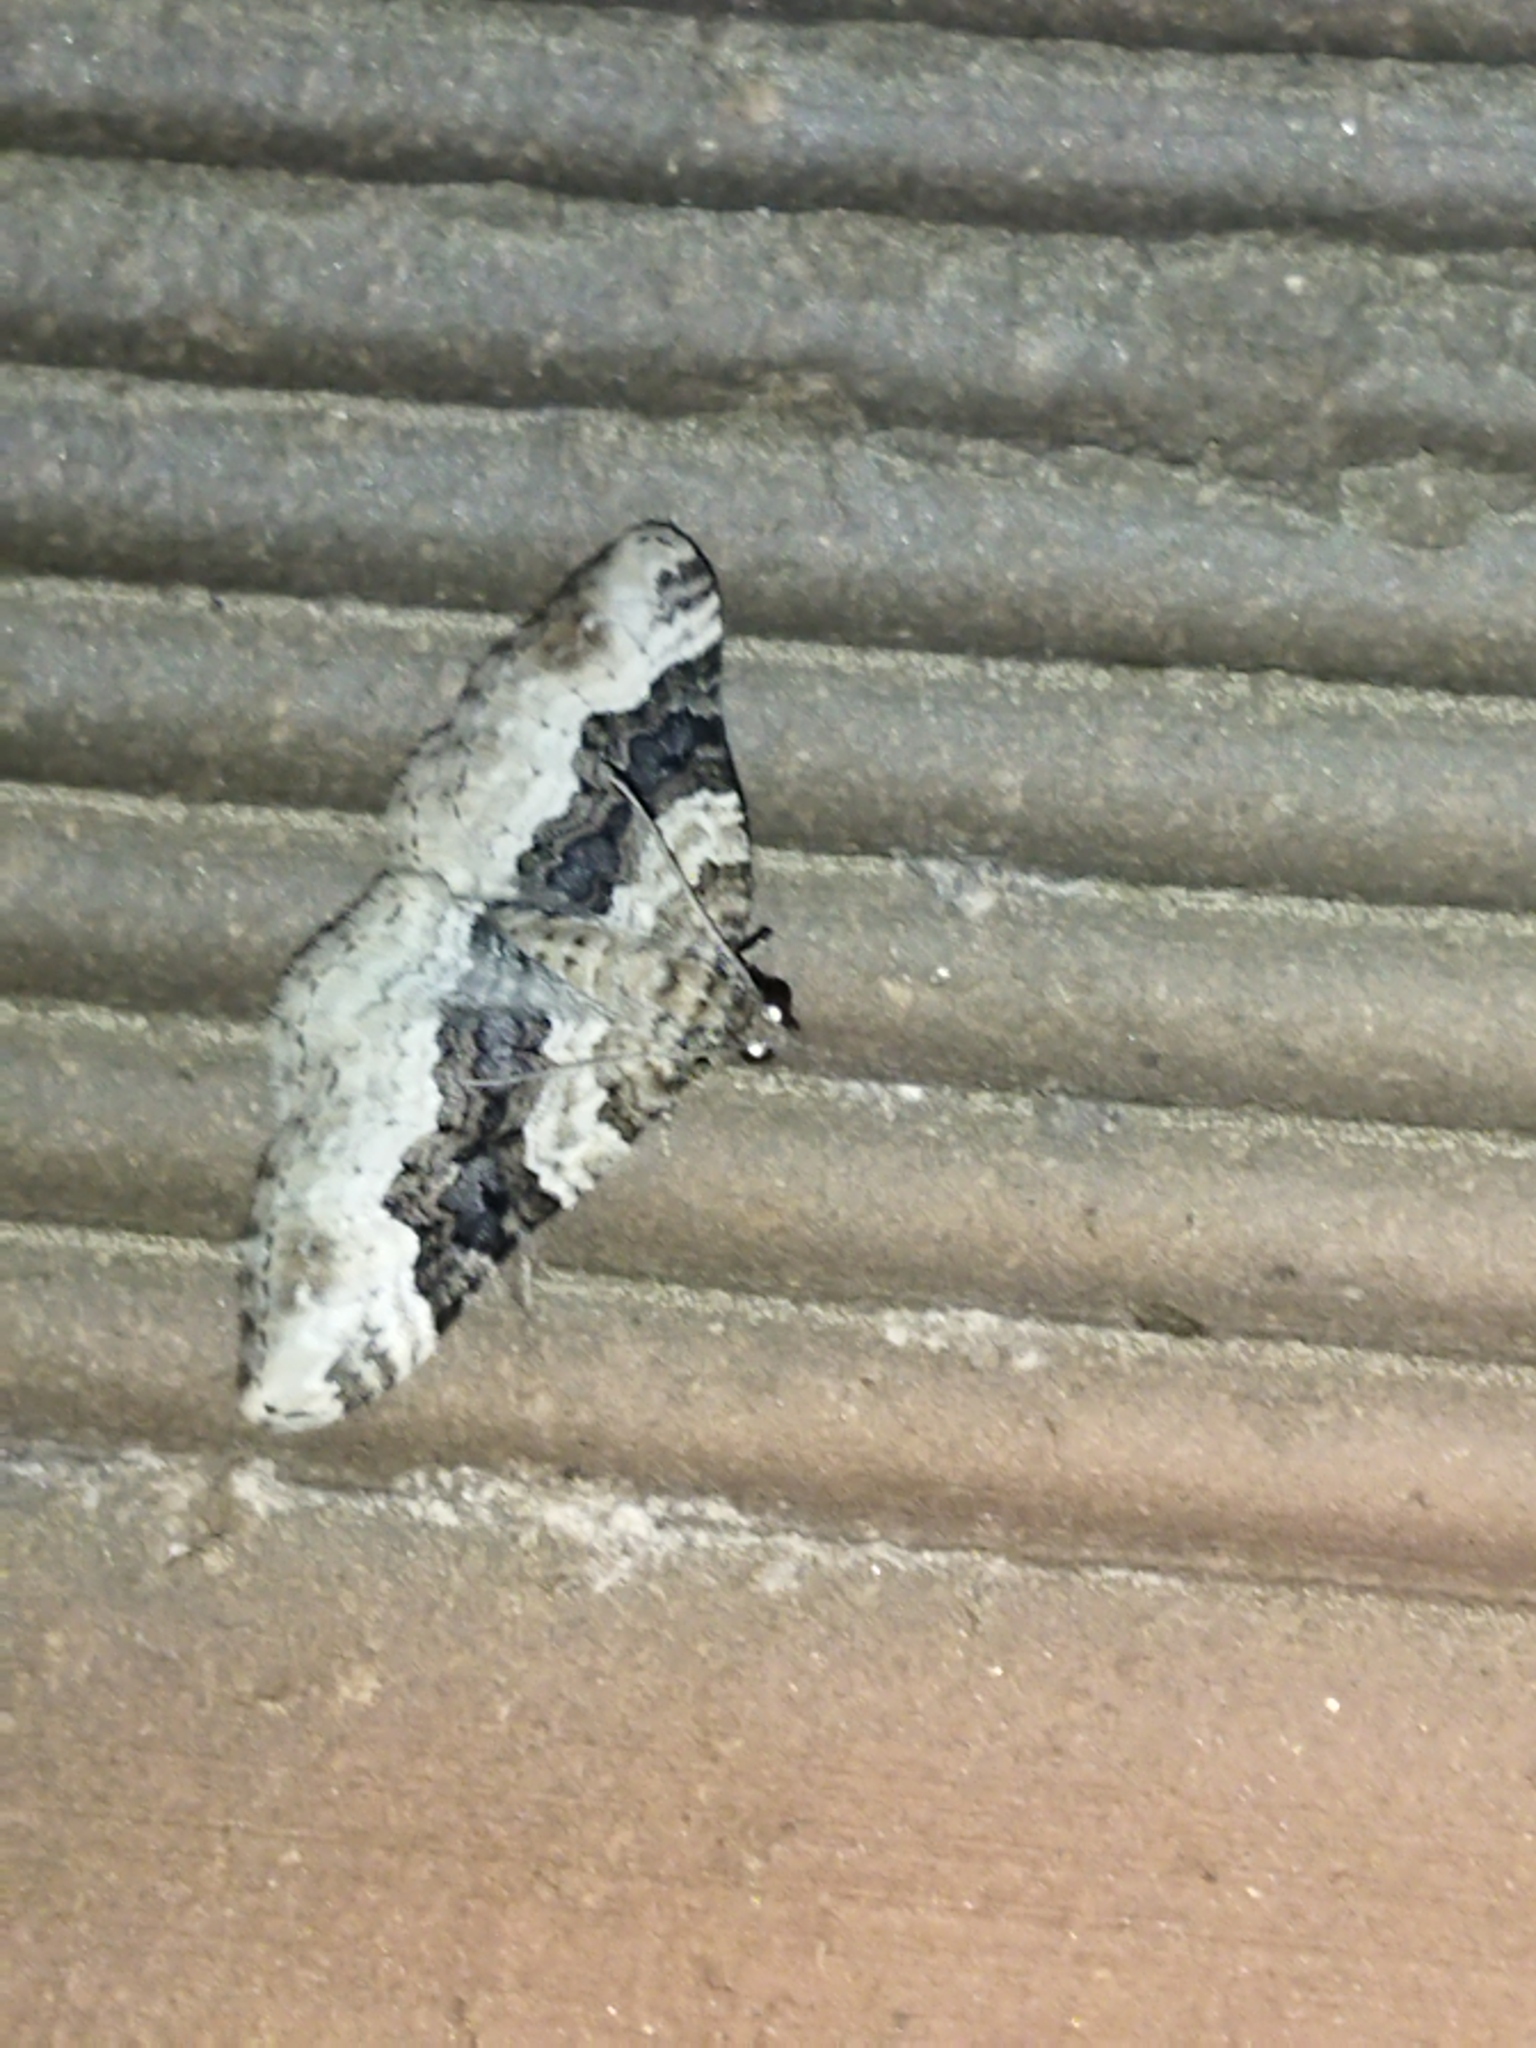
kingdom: Animalia
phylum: Arthropoda
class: Insecta
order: Lepidoptera
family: Geometridae
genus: Epirrhoe
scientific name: Epirrhoe galiata
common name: Galium carpet
